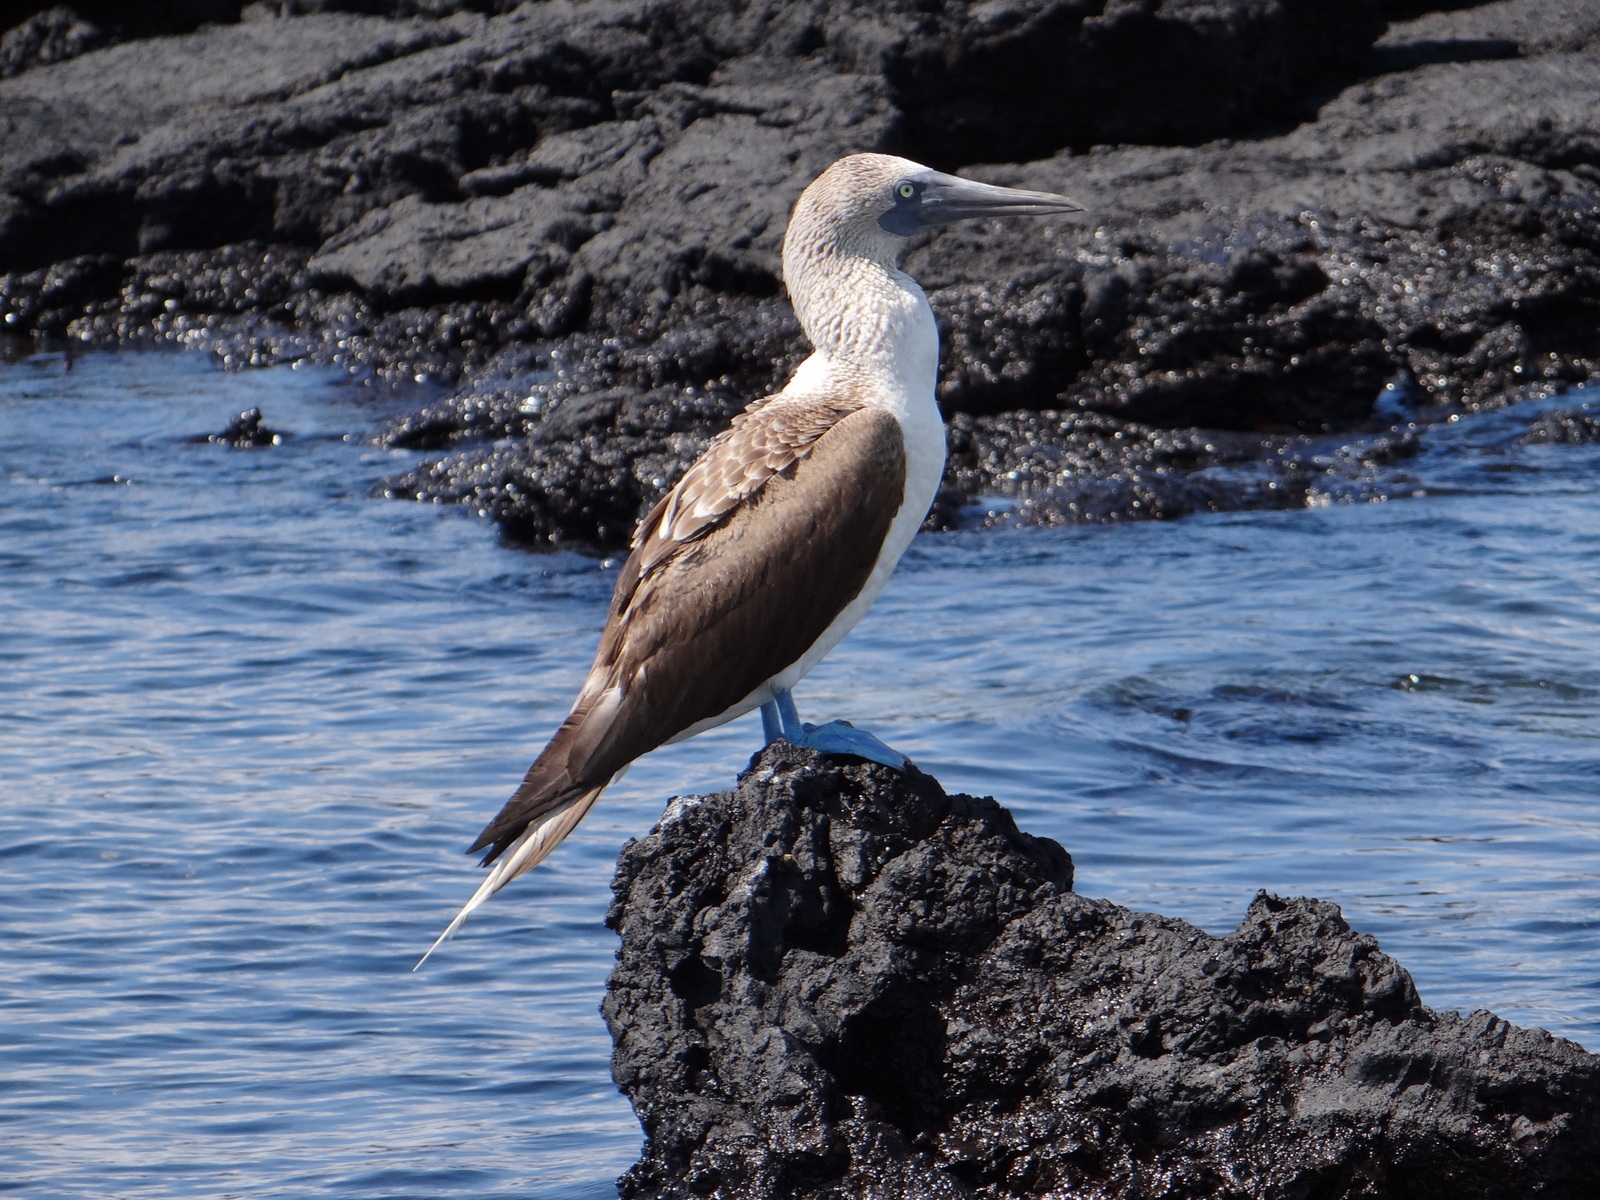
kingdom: Animalia
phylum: Chordata
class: Aves
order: Suliformes
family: Sulidae
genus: Sula
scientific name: Sula nebouxii
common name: Blue-footed booby
